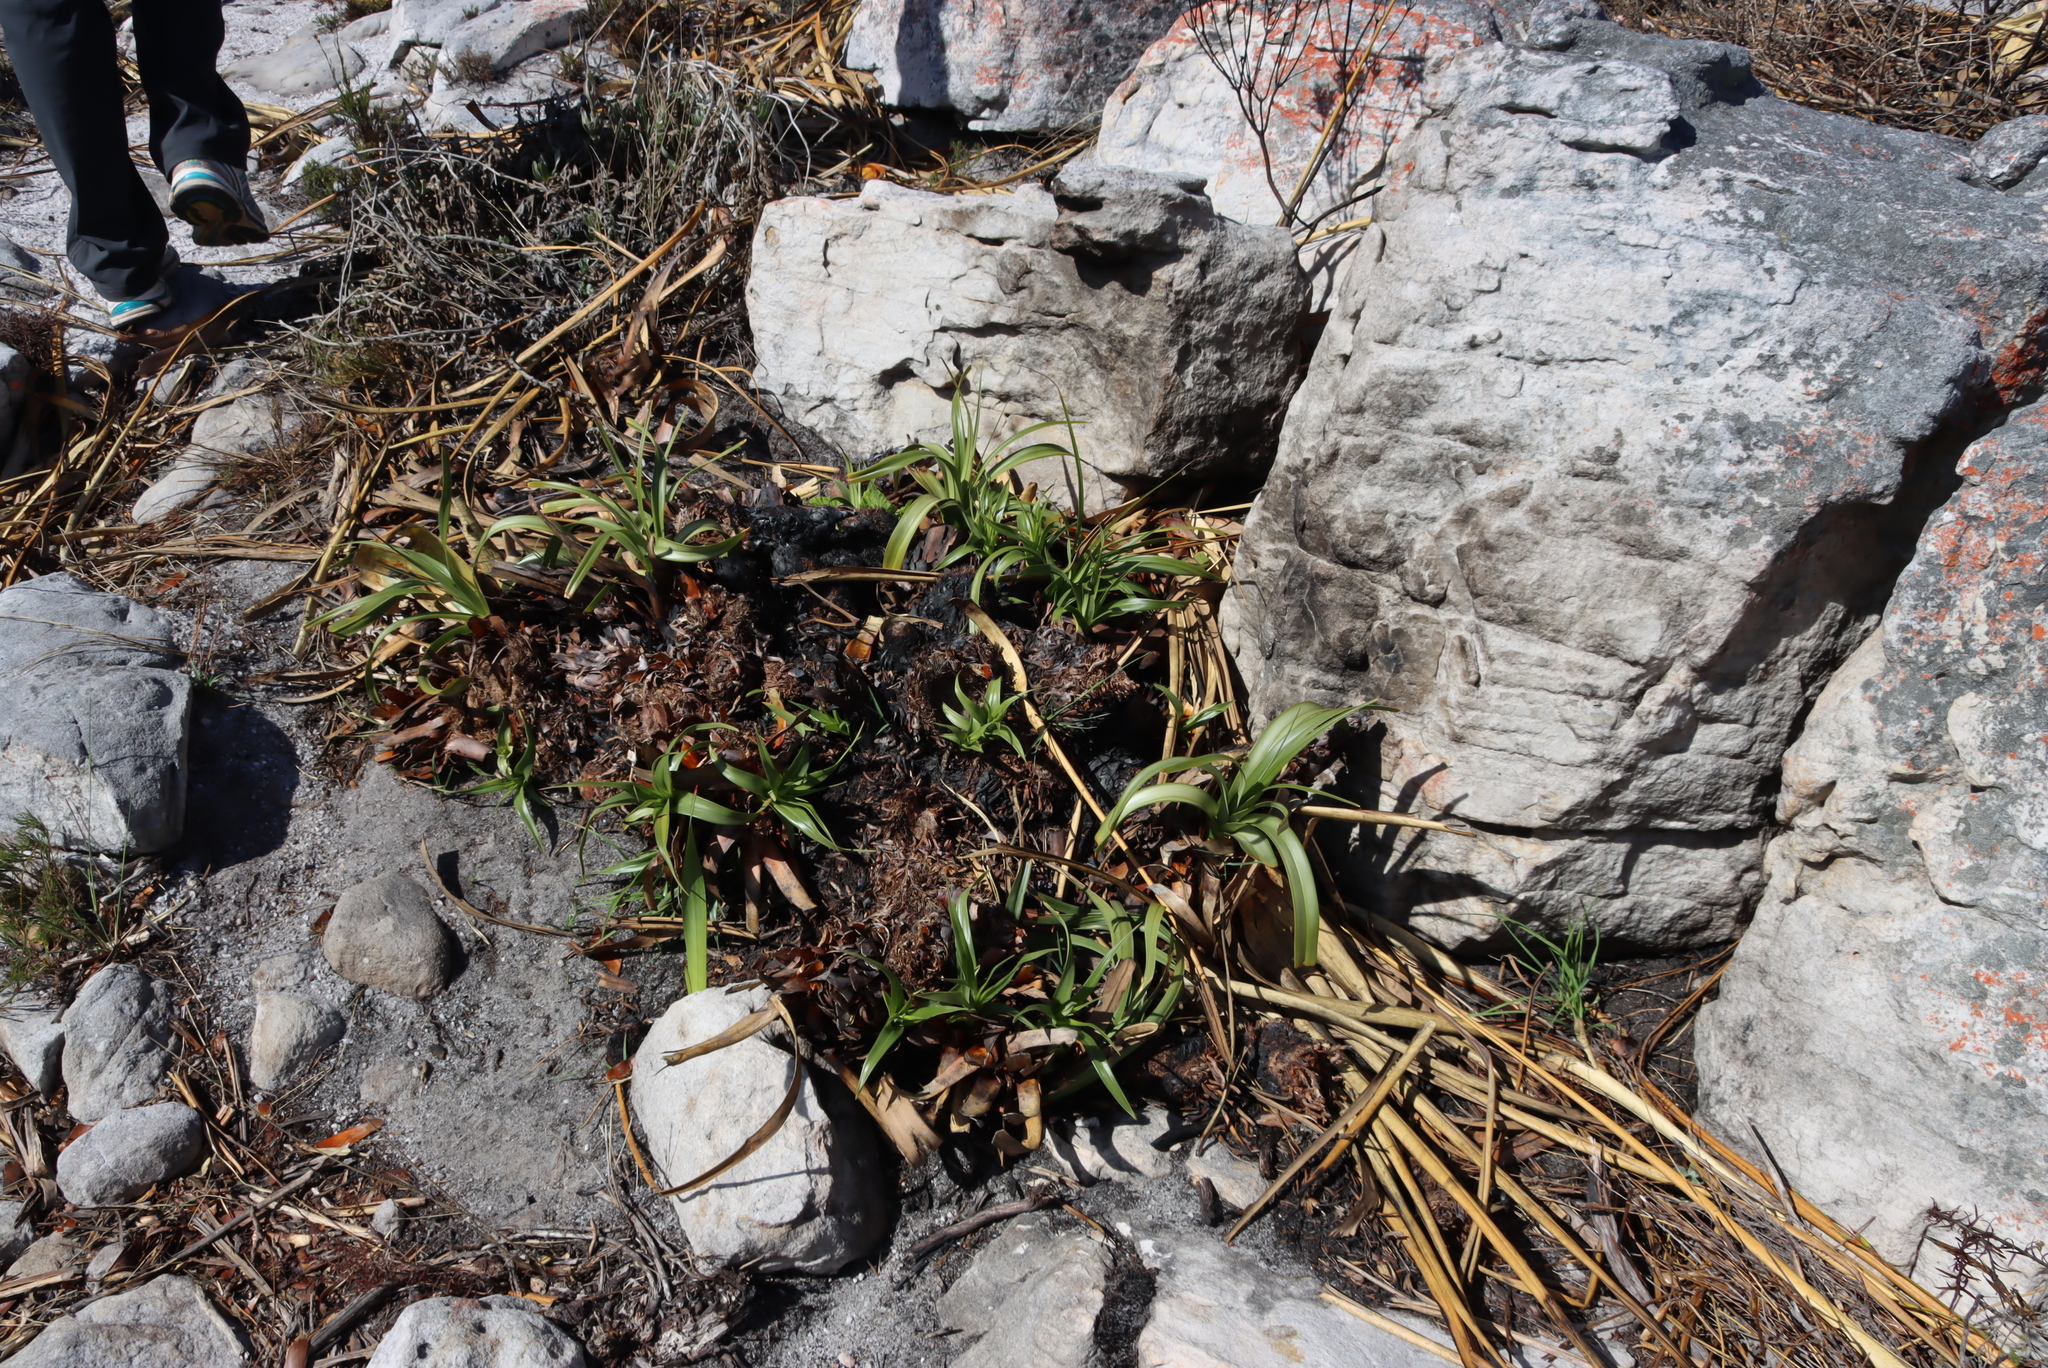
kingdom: Plantae
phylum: Tracheophyta
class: Liliopsida
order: Poales
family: Cyperaceae
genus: Tetraria
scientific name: Tetraria thermalis
